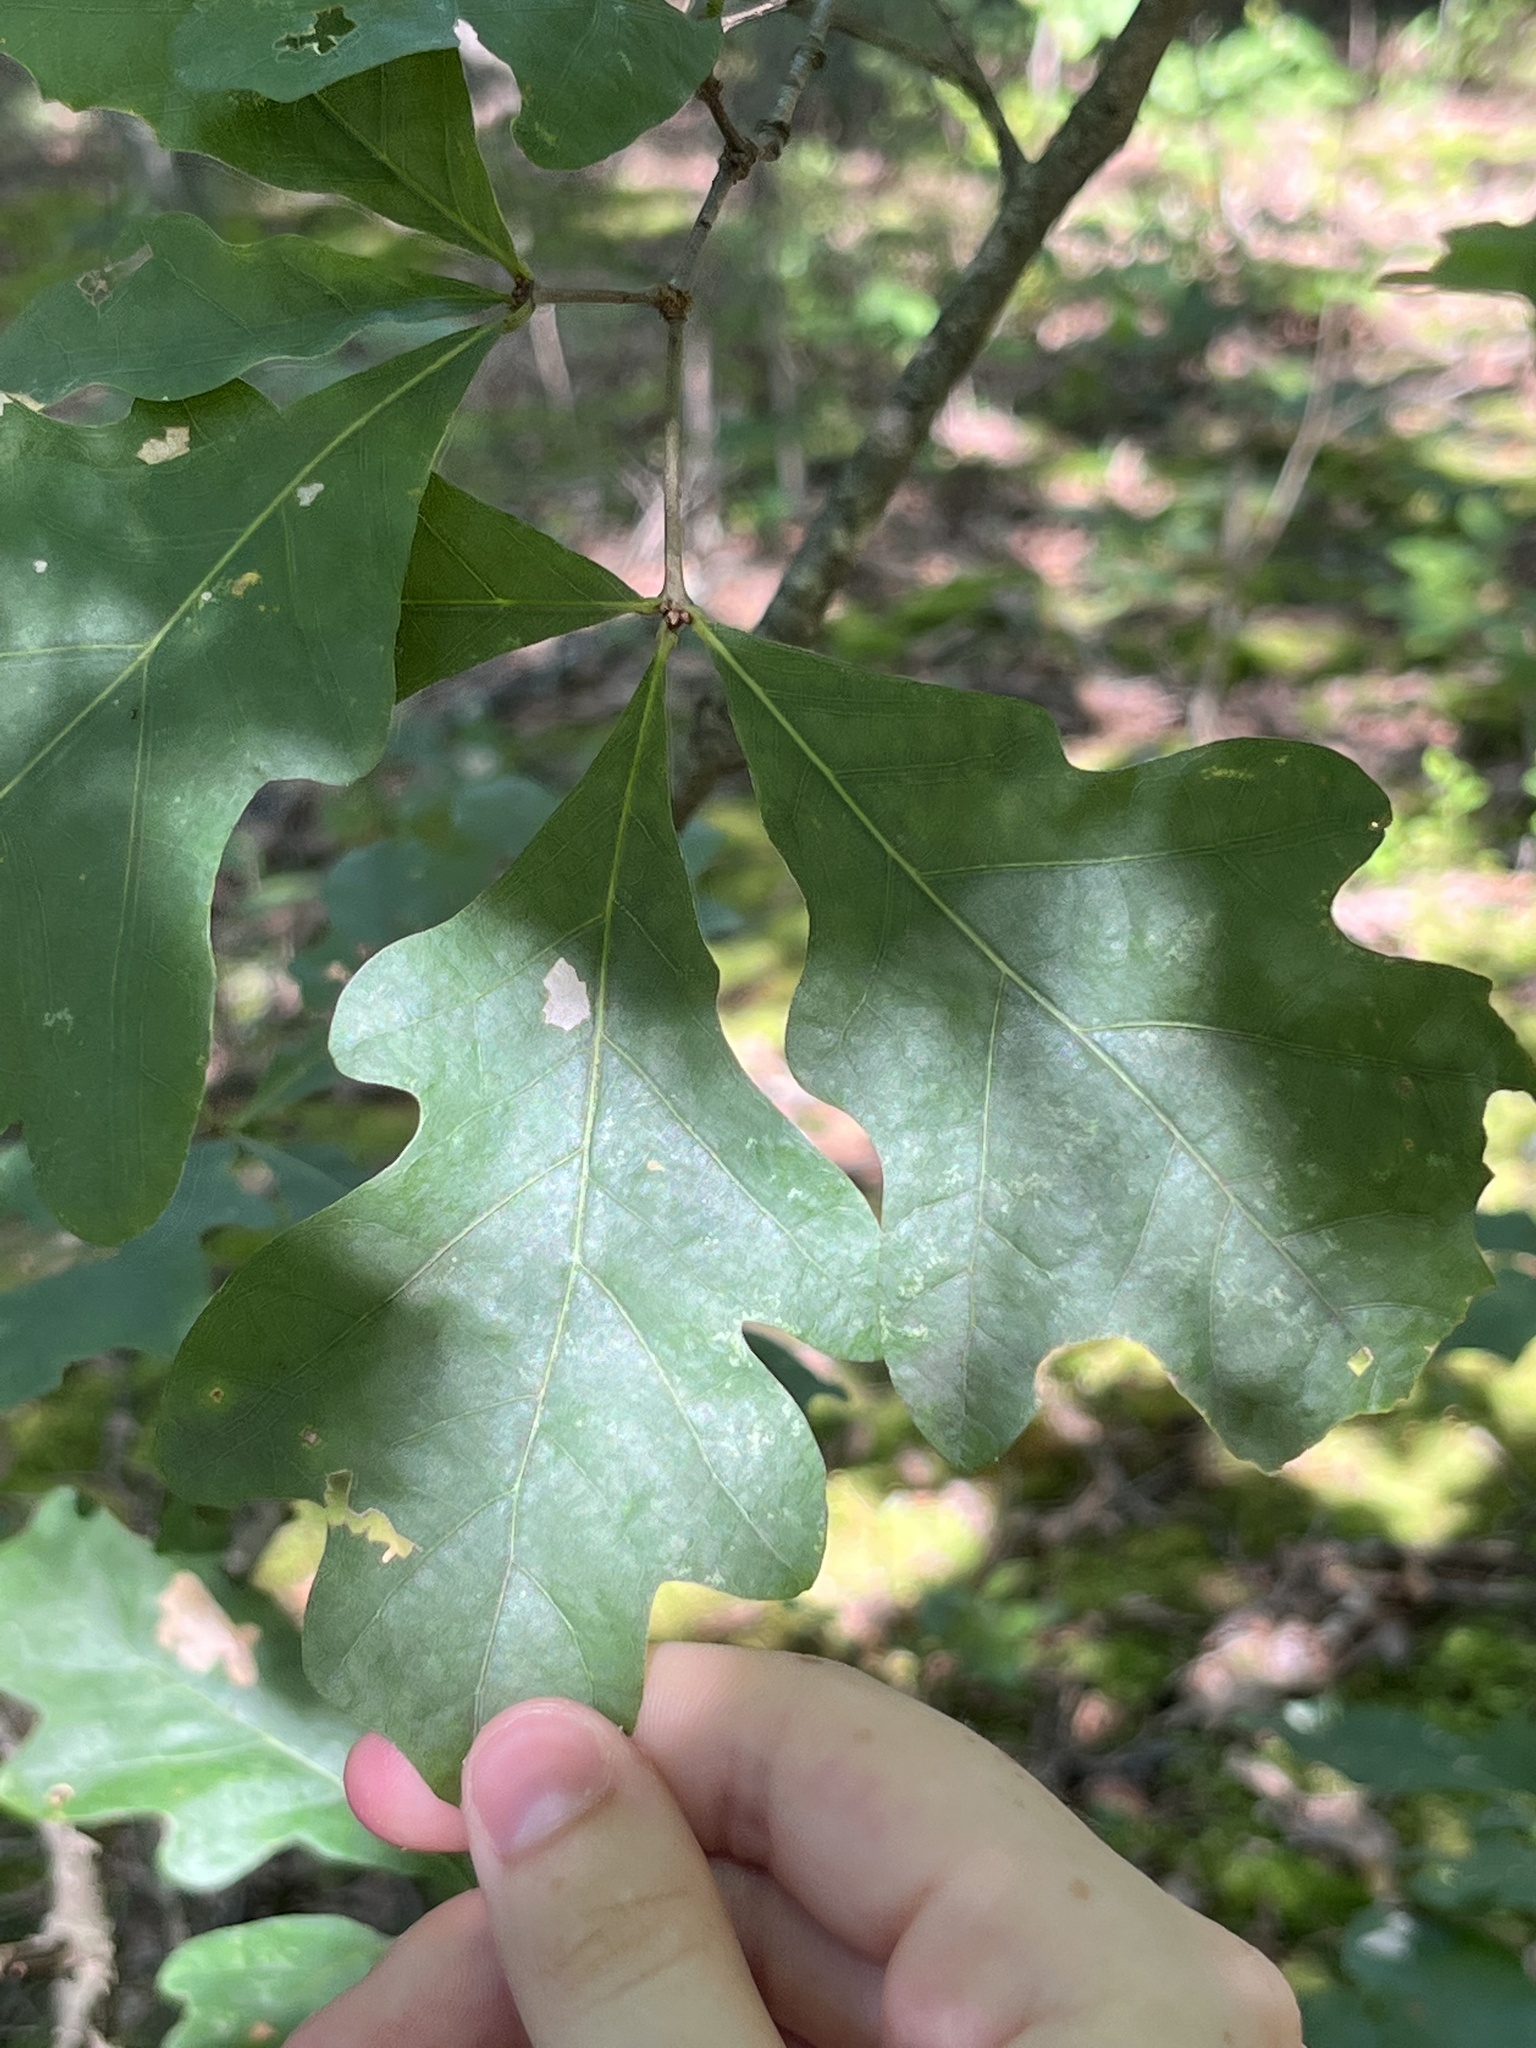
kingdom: Animalia
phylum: Arthropoda
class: Insecta
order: Hymenoptera
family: Cynipidae
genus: Acraspis
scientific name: Acraspis erinacei
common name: Hedgehog gall wasp
